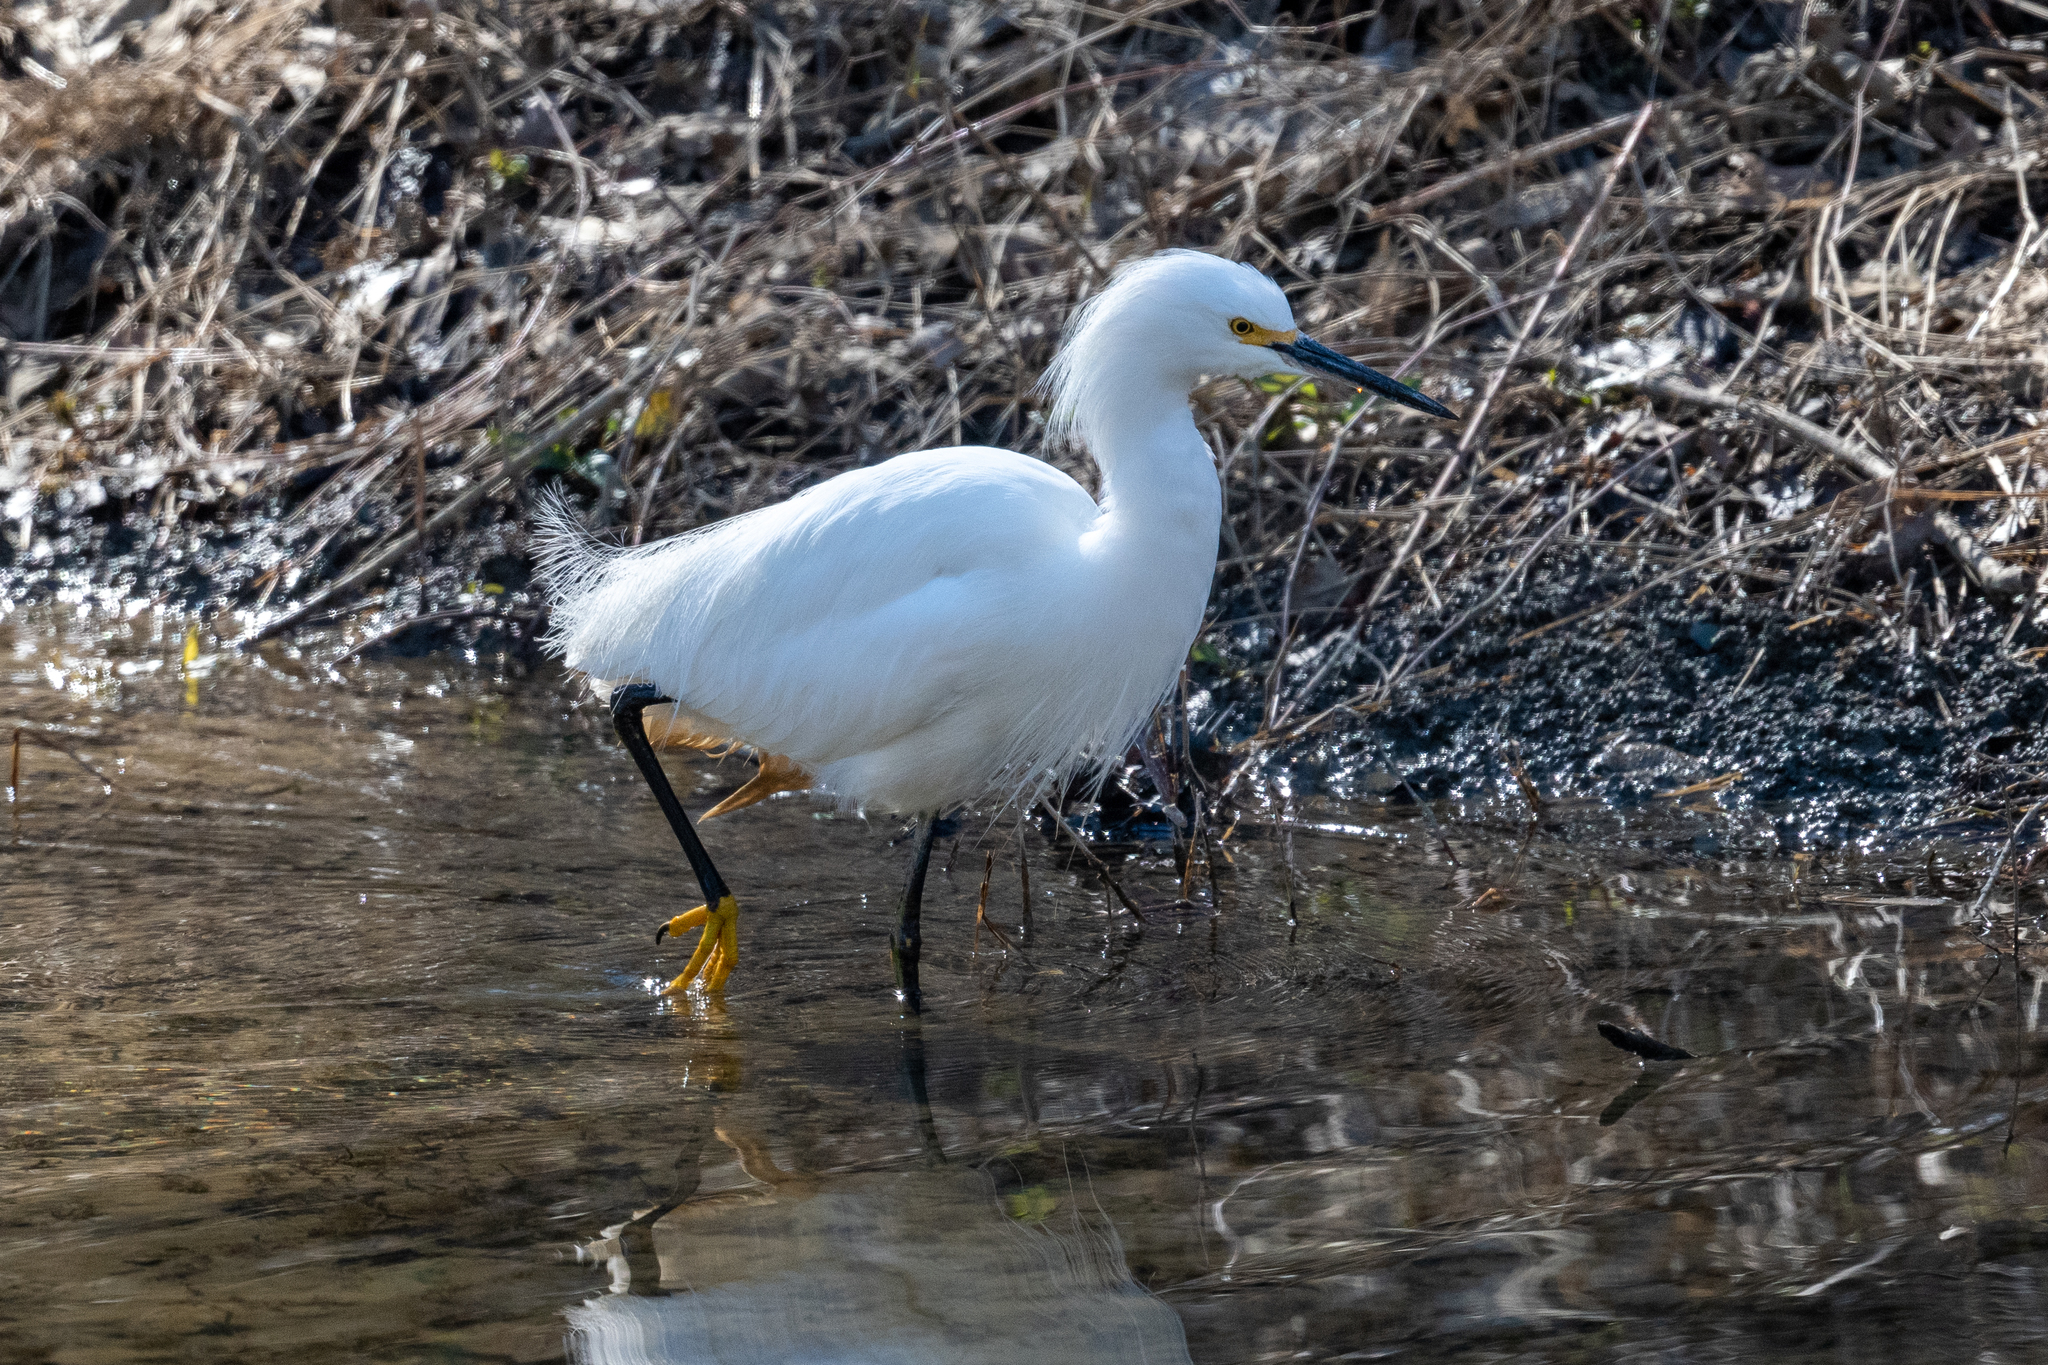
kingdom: Animalia
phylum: Chordata
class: Aves
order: Pelecaniformes
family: Ardeidae
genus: Egretta
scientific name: Egretta thula
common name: Snowy egret
